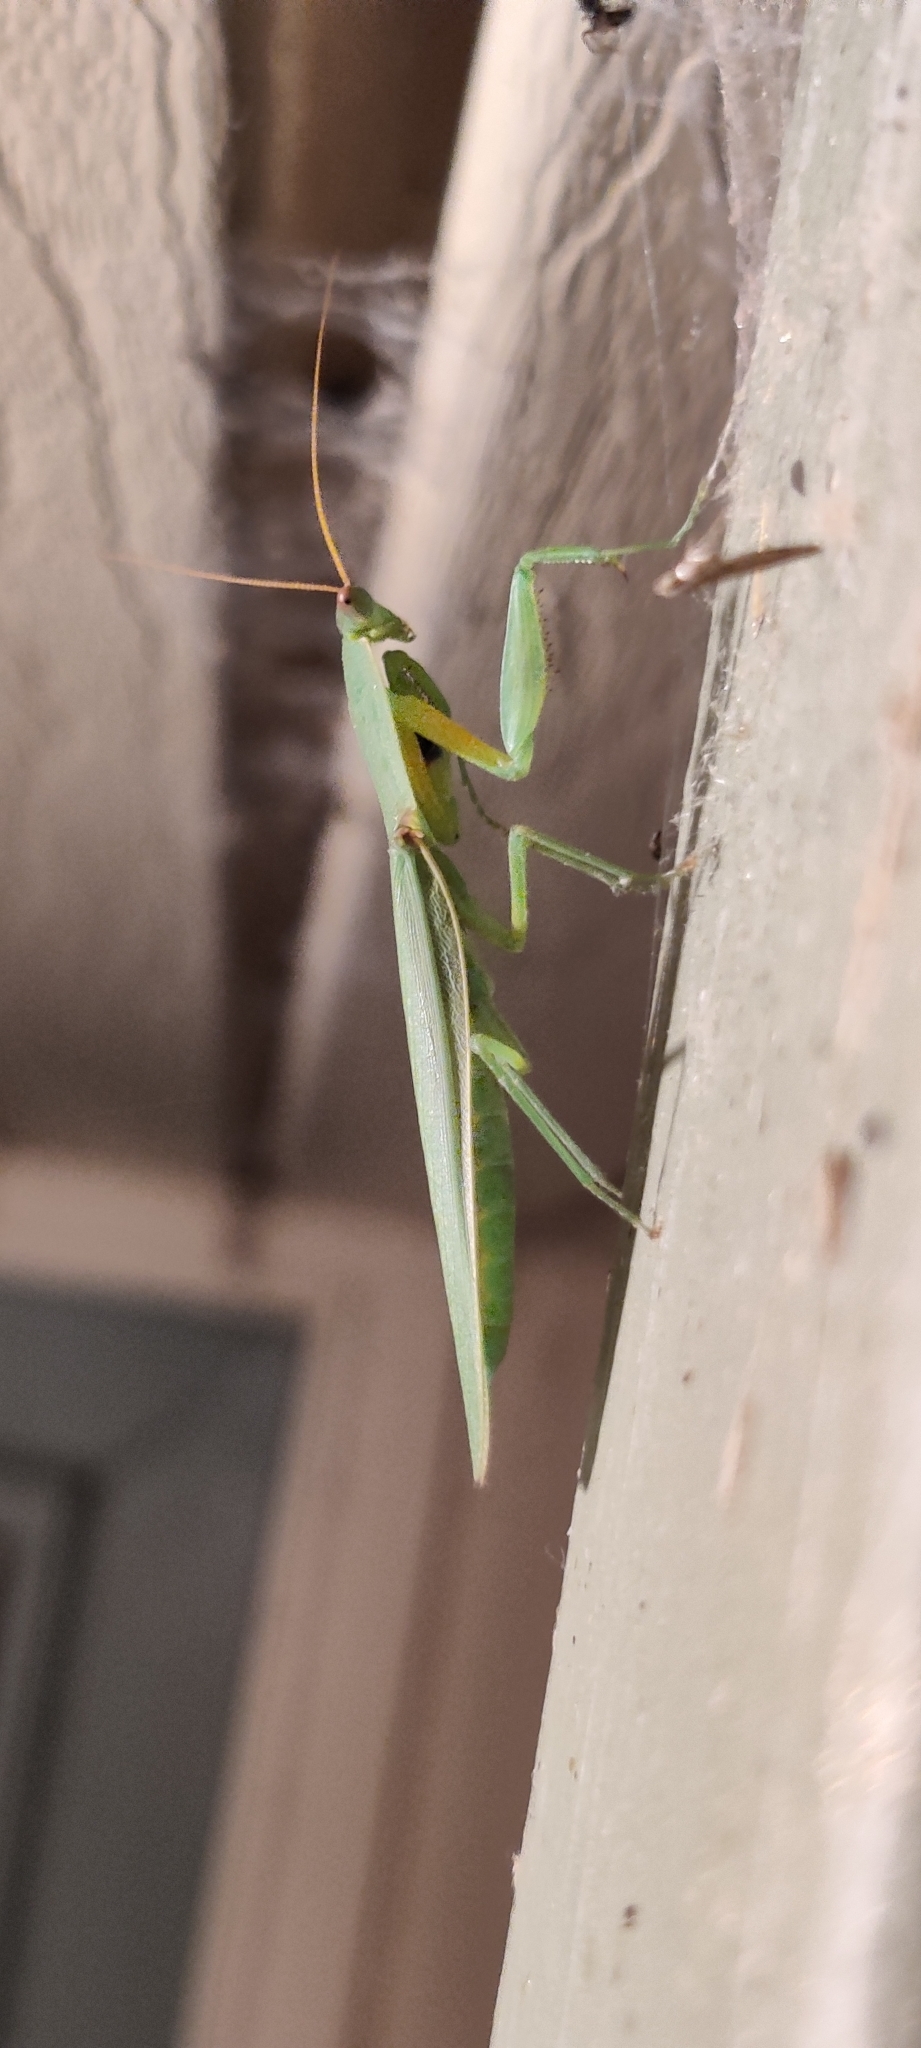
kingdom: Animalia
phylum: Arthropoda
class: Insecta
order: Mantodea
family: Mantidae
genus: Orthodera
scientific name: Orthodera ministralis
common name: Mantis
